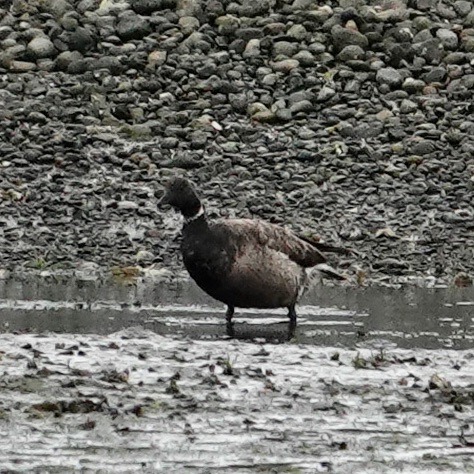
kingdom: Animalia
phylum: Chordata
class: Aves
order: Anseriformes
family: Anatidae
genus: Branta
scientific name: Branta bernicla
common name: Brant goose
